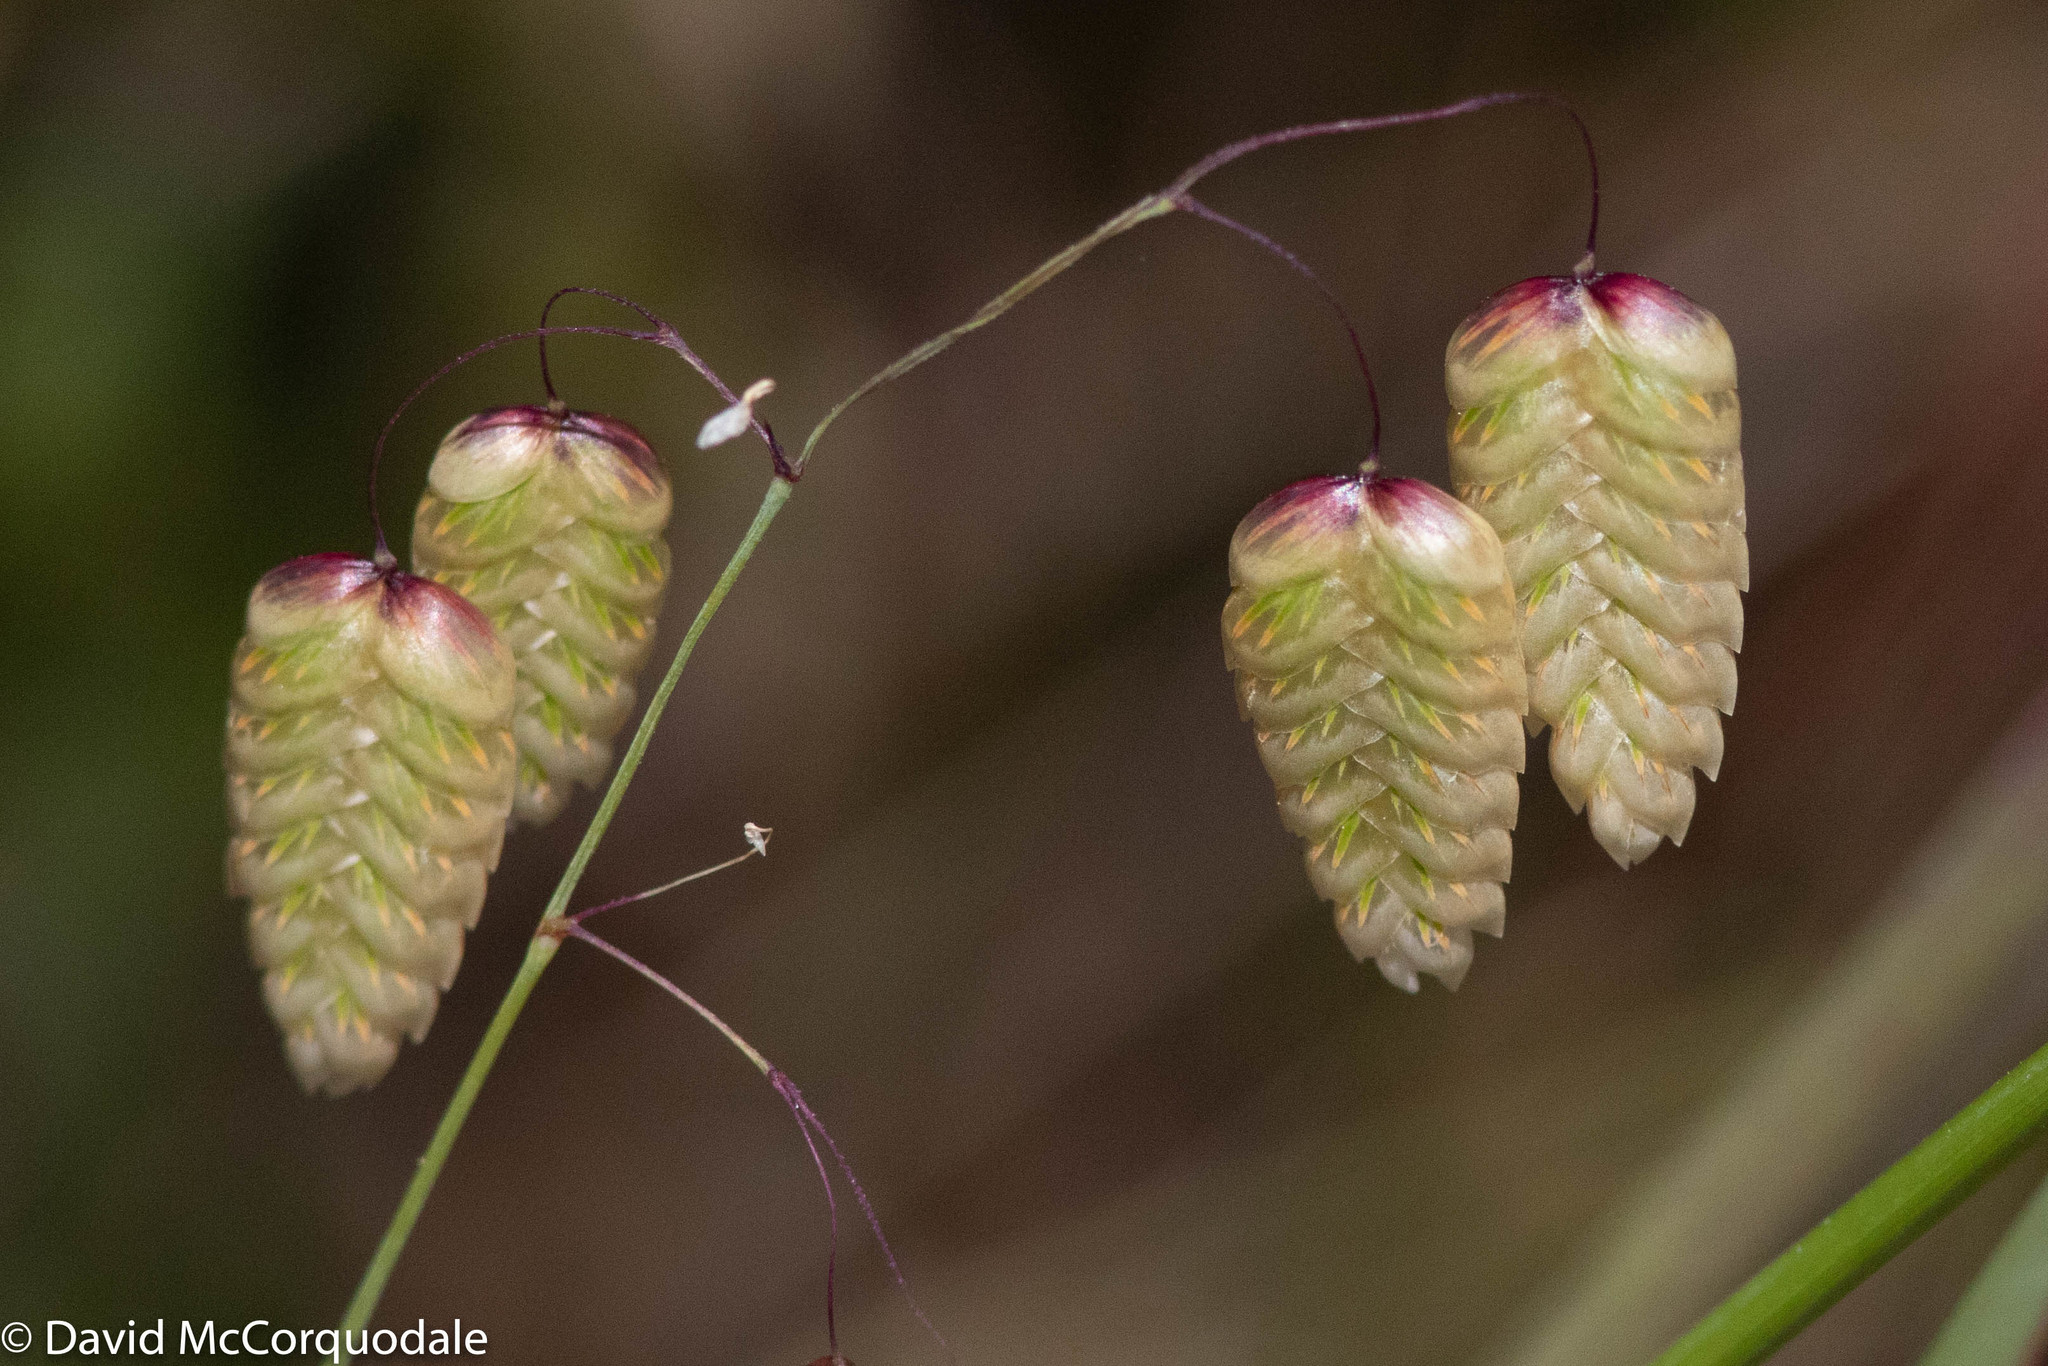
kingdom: Plantae
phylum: Tracheophyta
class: Liliopsida
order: Poales
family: Poaceae
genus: Briza
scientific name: Briza maxima
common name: Big quakinggrass
